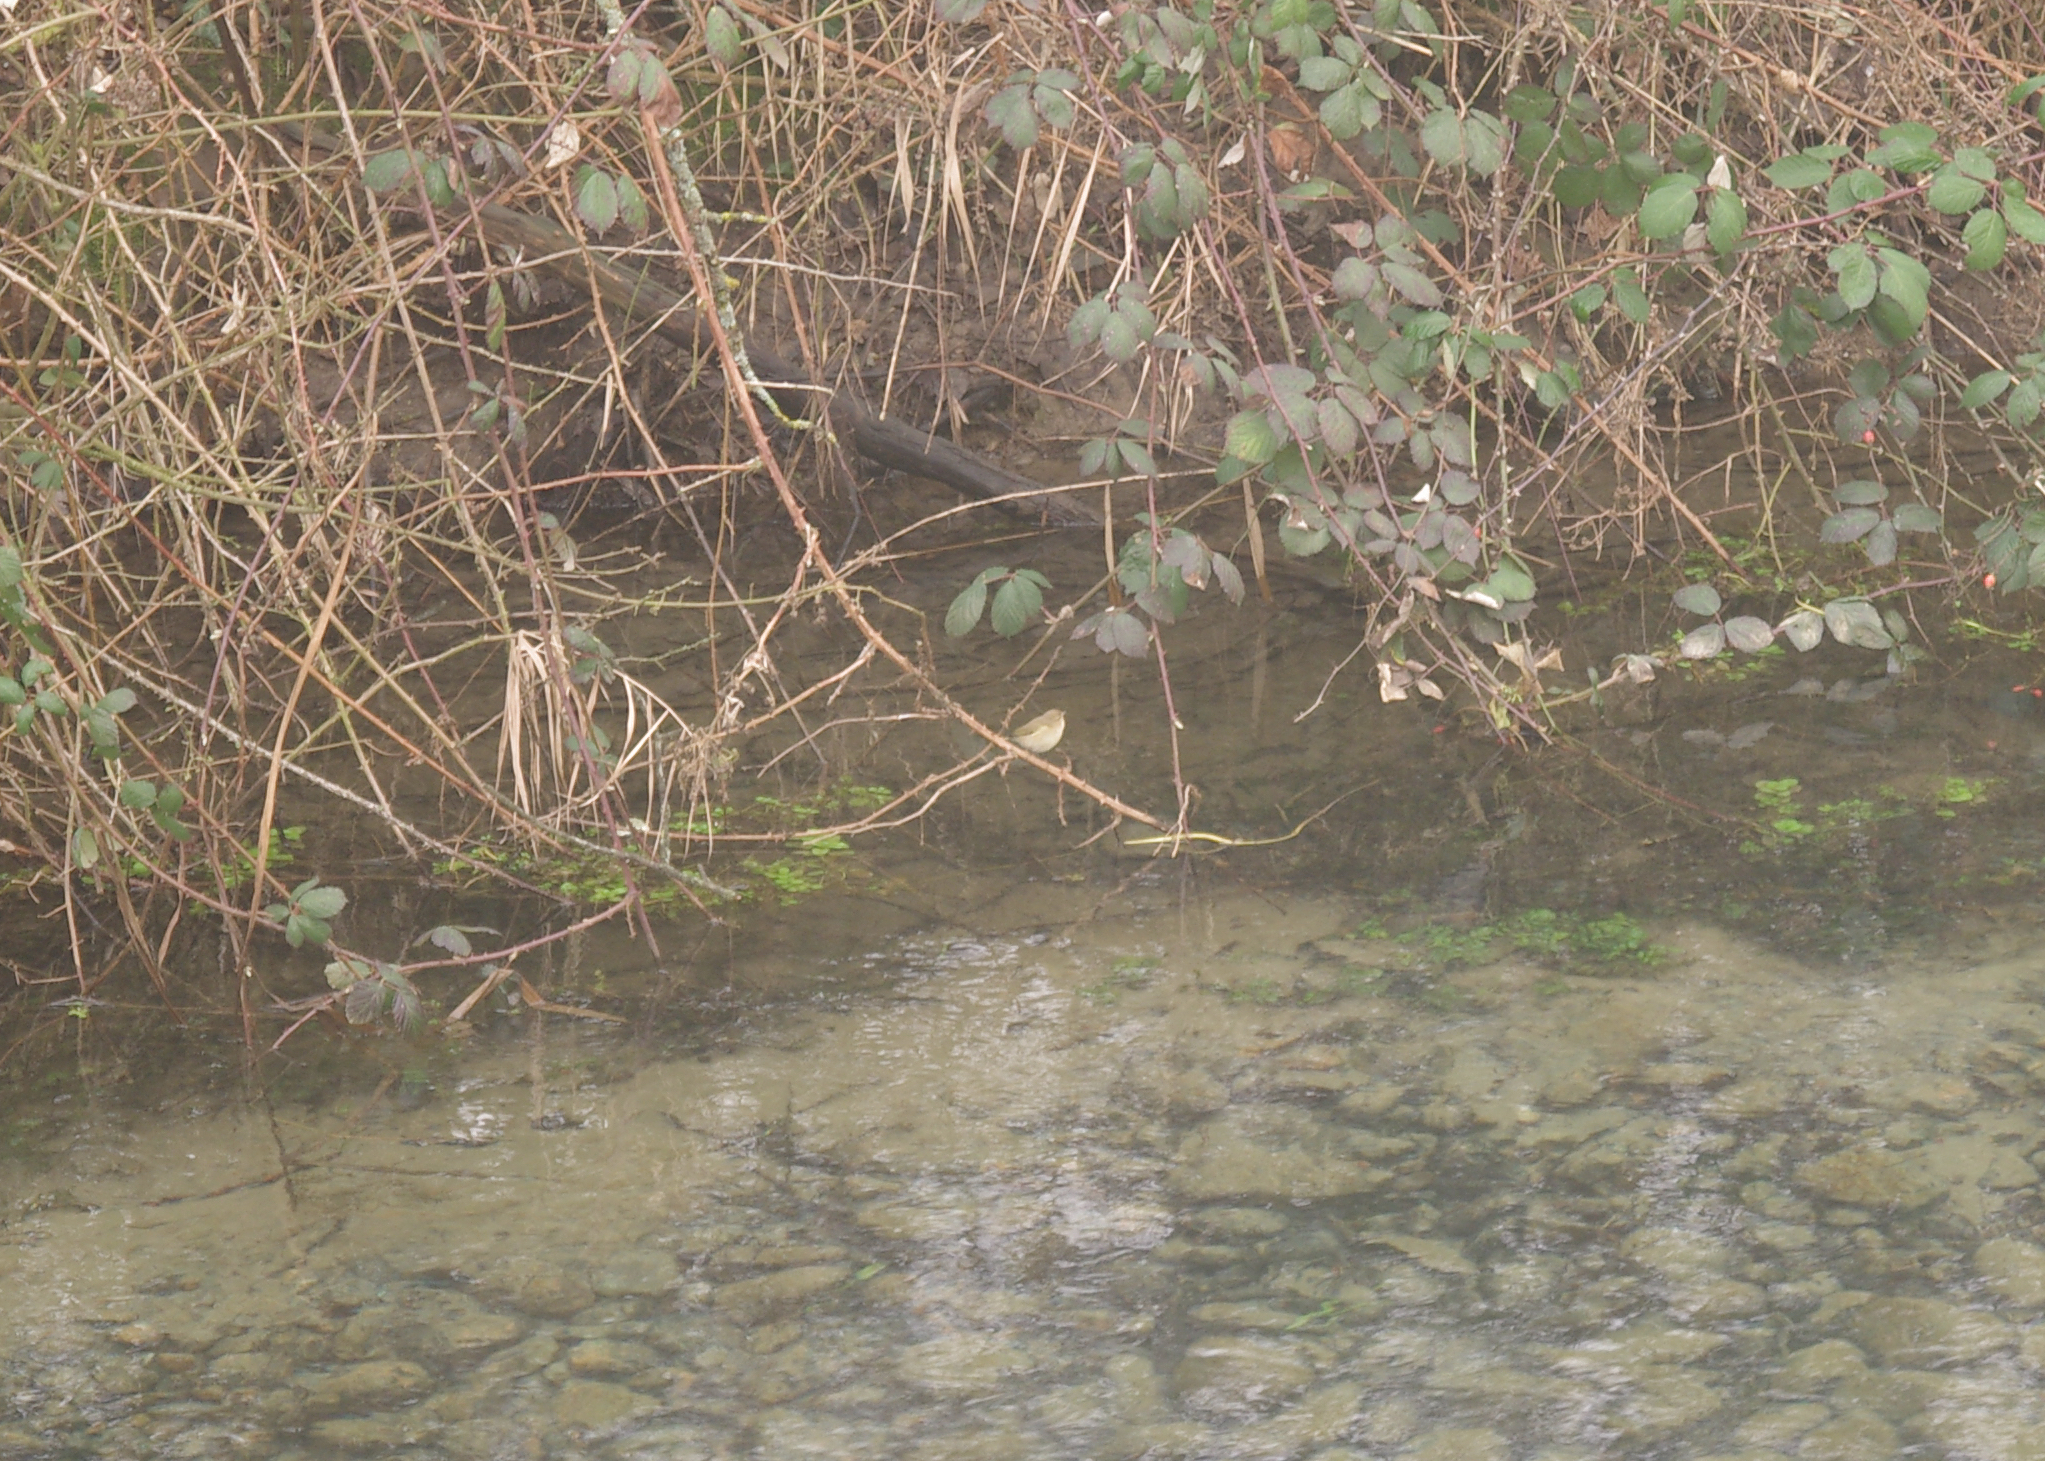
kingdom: Animalia
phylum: Chordata
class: Aves
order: Passeriformes
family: Phylloscopidae
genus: Phylloscopus
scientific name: Phylloscopus collybita
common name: Common chiffchaff
